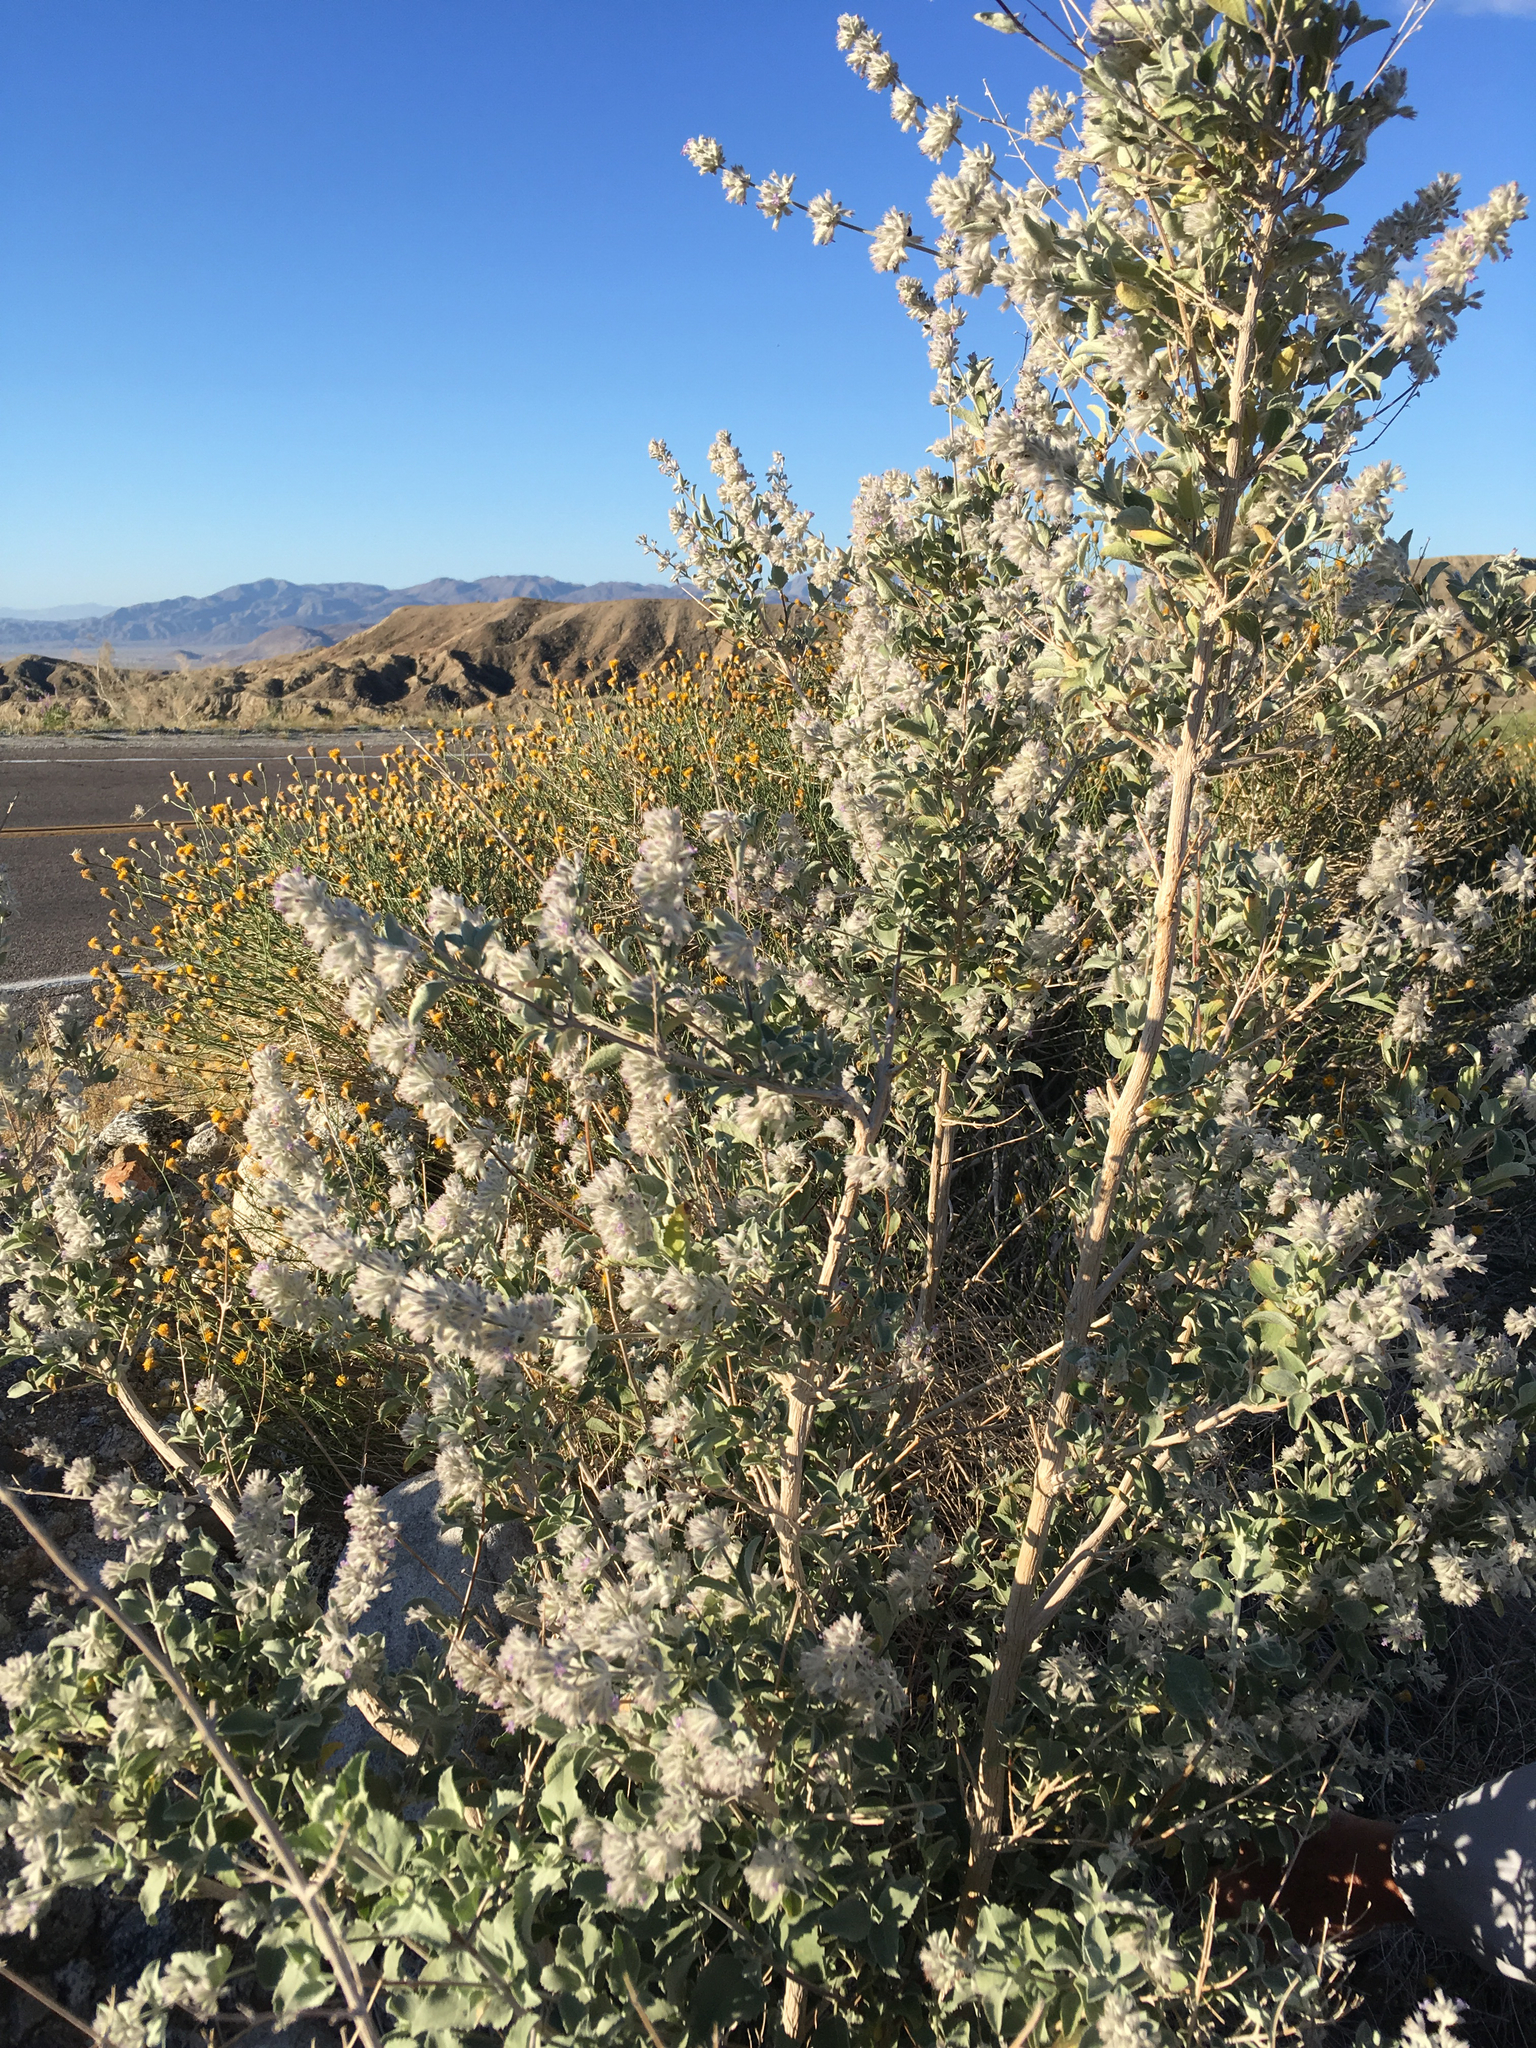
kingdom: Plantae
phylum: Tracheophyta
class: Magnoliopsida
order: Lamiales
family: Lamiaceae
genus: Condea
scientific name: Condea emoryi
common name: Chia
